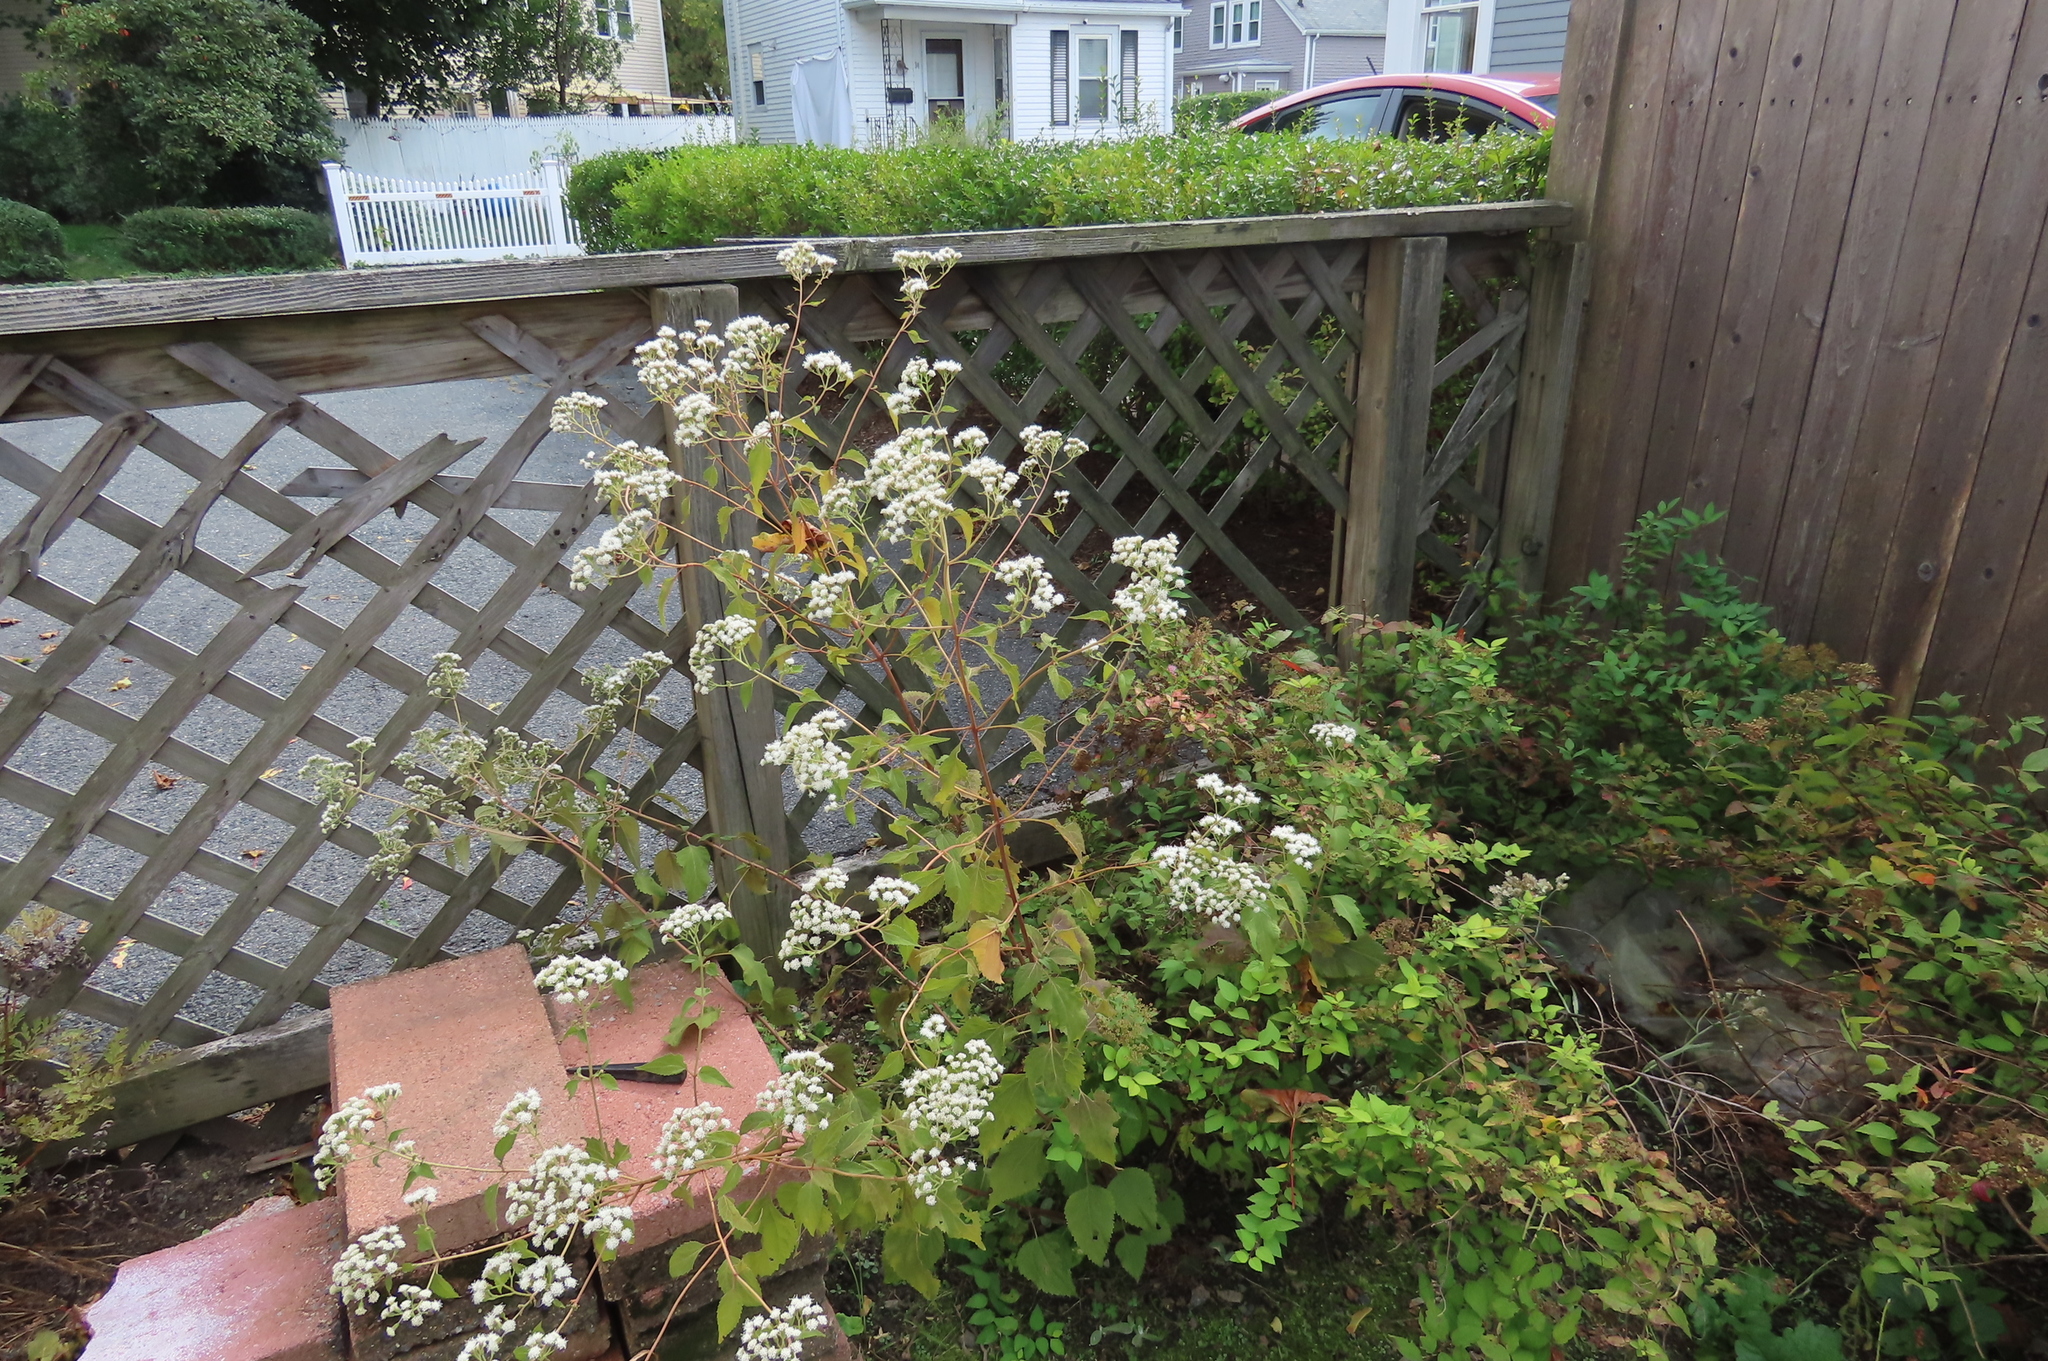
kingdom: Plantae
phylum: Tracheophyta
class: Magnoliopsida
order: Asterales
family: Asteraceae
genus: Ageratina
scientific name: Ageratina altissima
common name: White snakeroot
